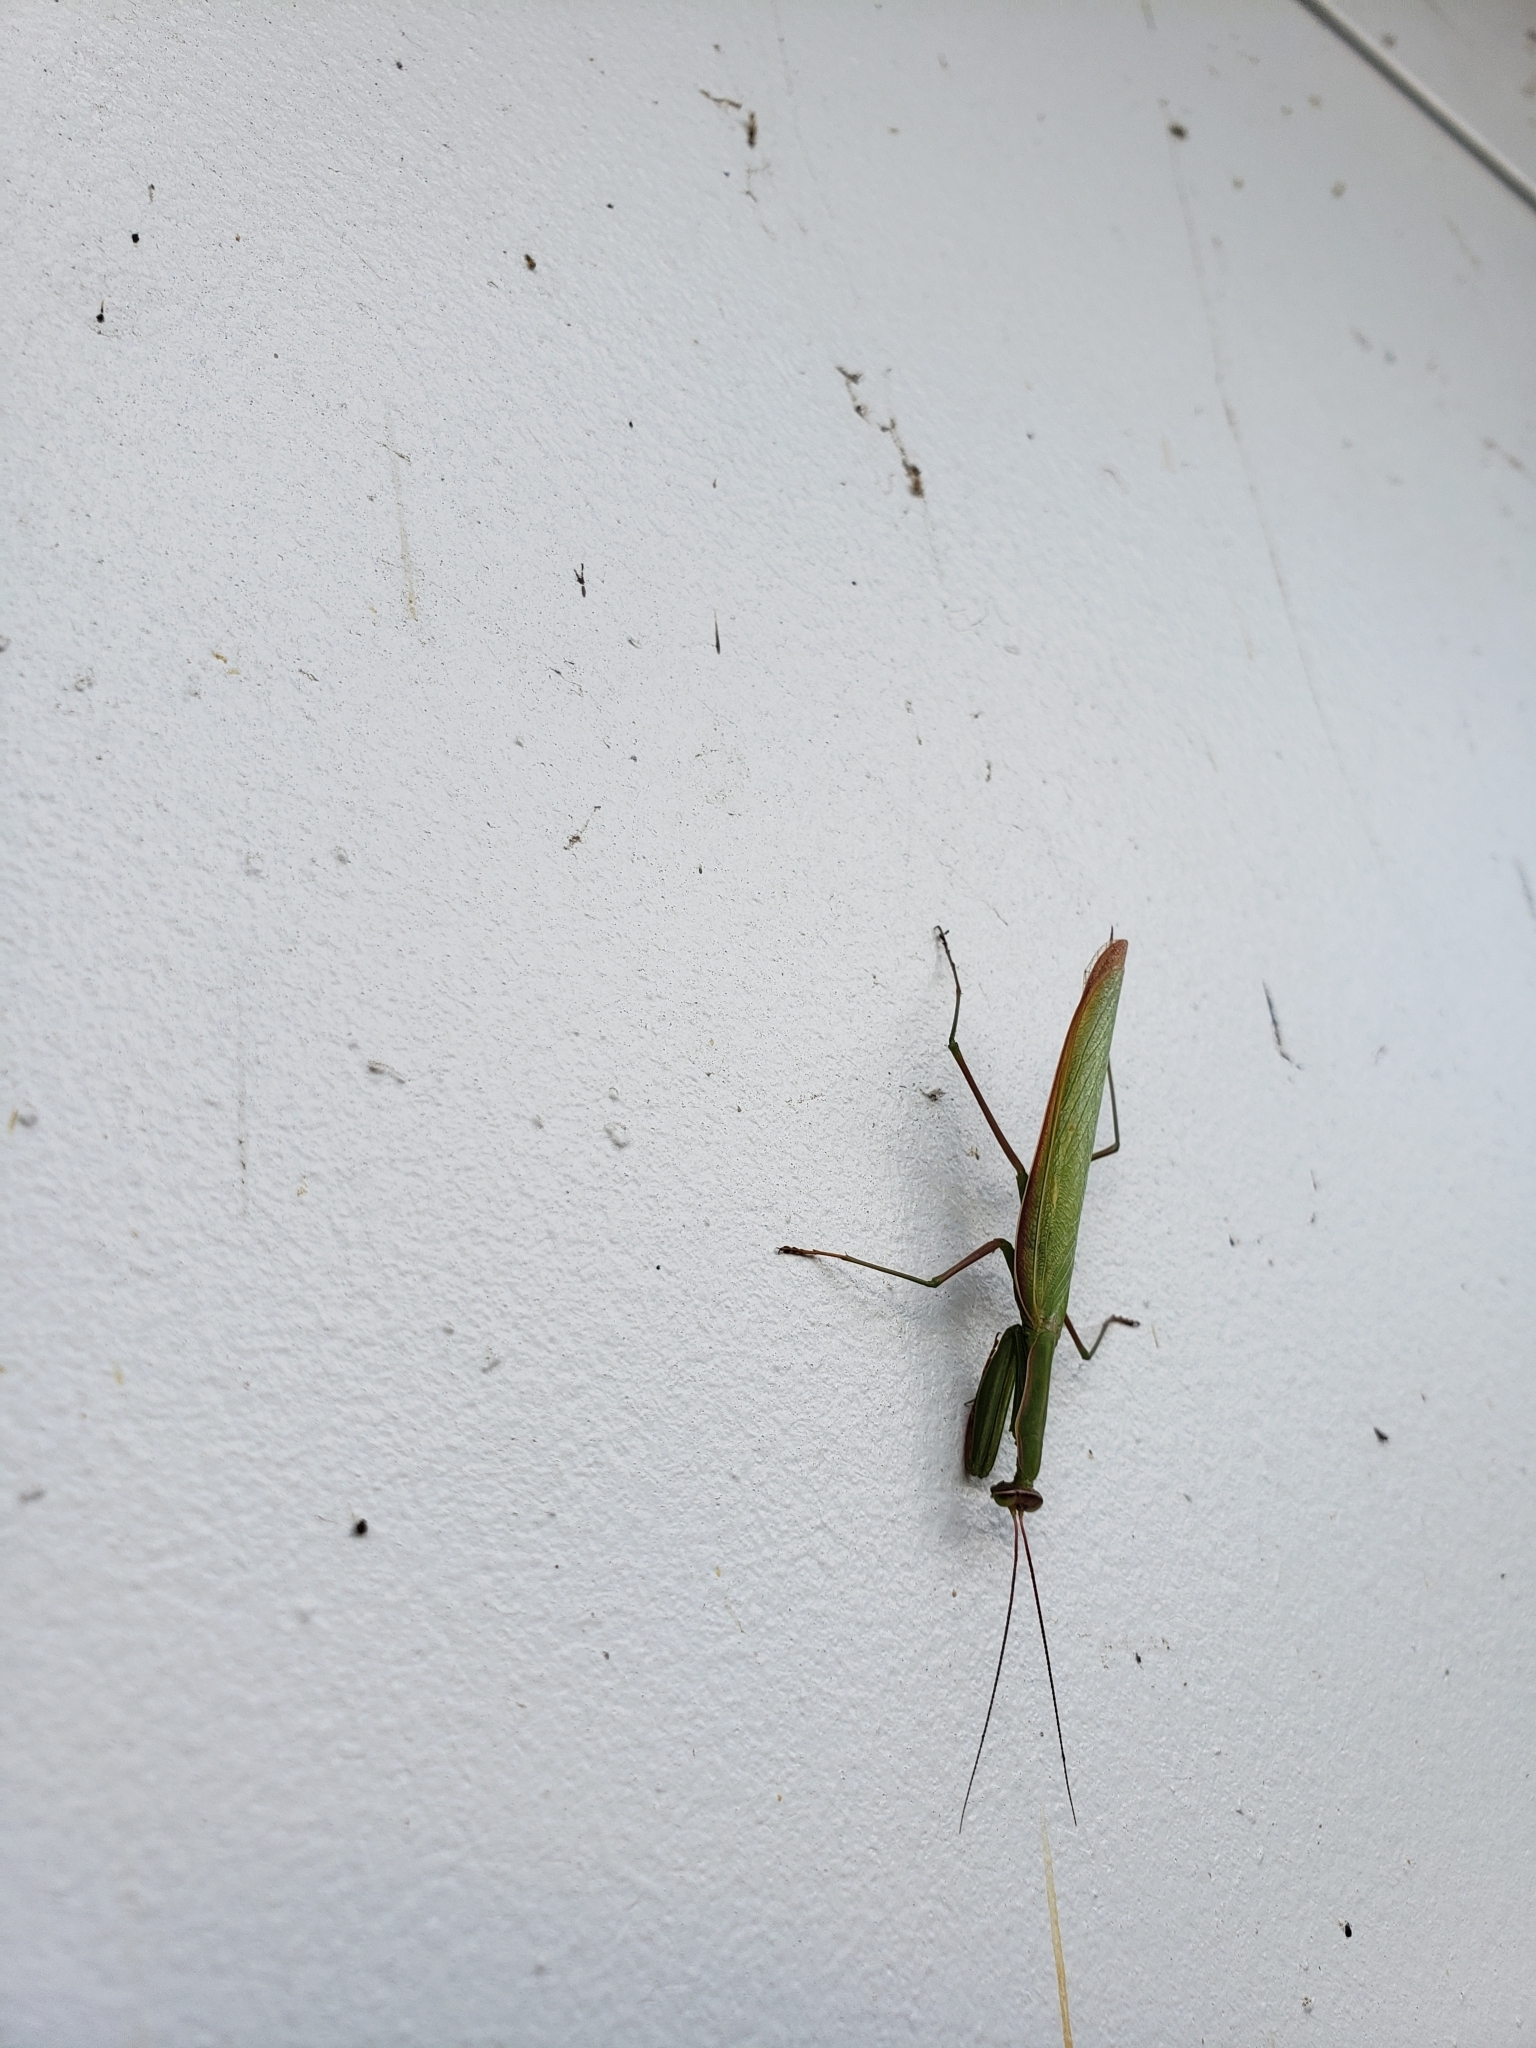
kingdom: Animalia
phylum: Arthropoda
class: Insecta
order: Mantodea
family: Mantidae
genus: Mantis
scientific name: Mantis religiosa
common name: Praying mantis
